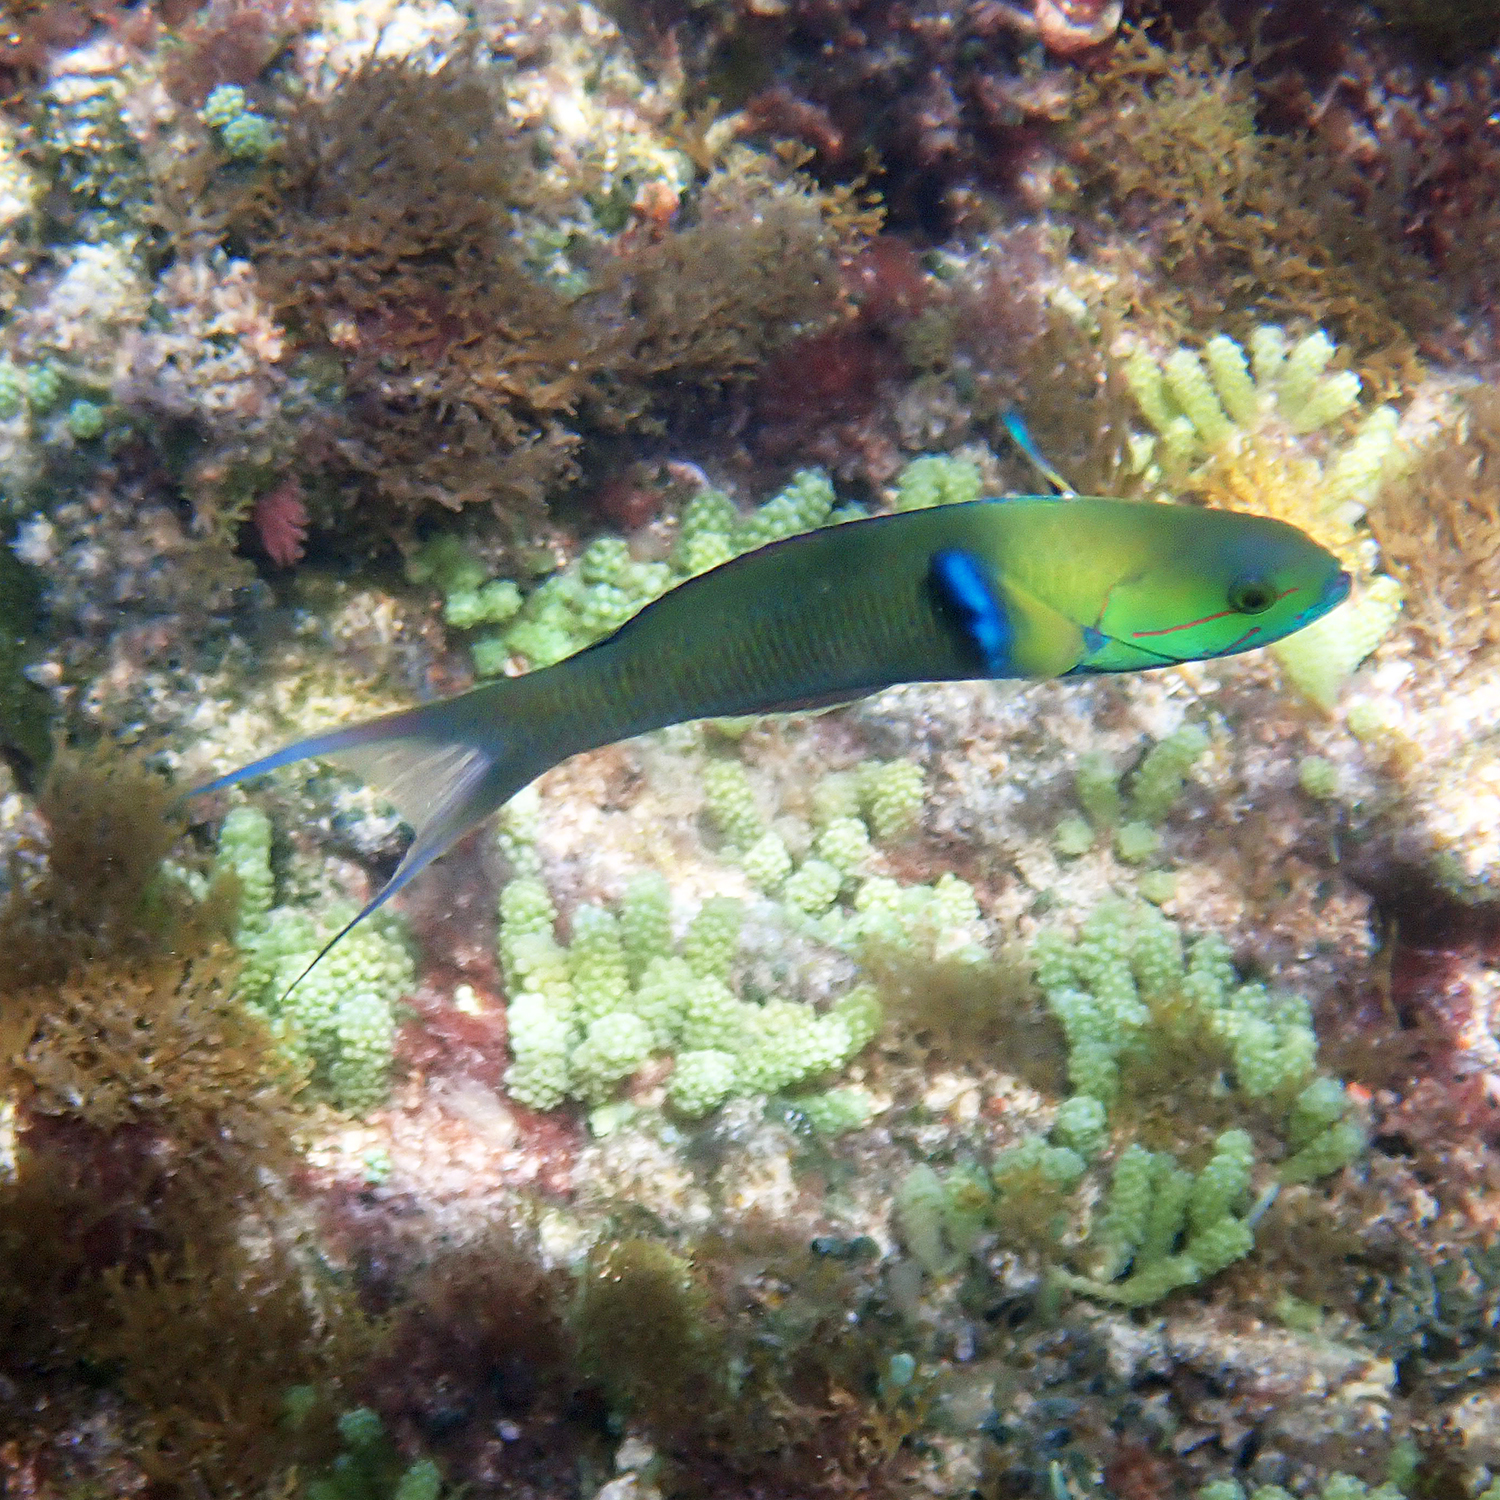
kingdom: Animalia
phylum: Chordata
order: Perciformes
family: Labridae
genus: Thalassoma
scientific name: Thalassoma amblycephalum
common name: Bluehead wrasse
